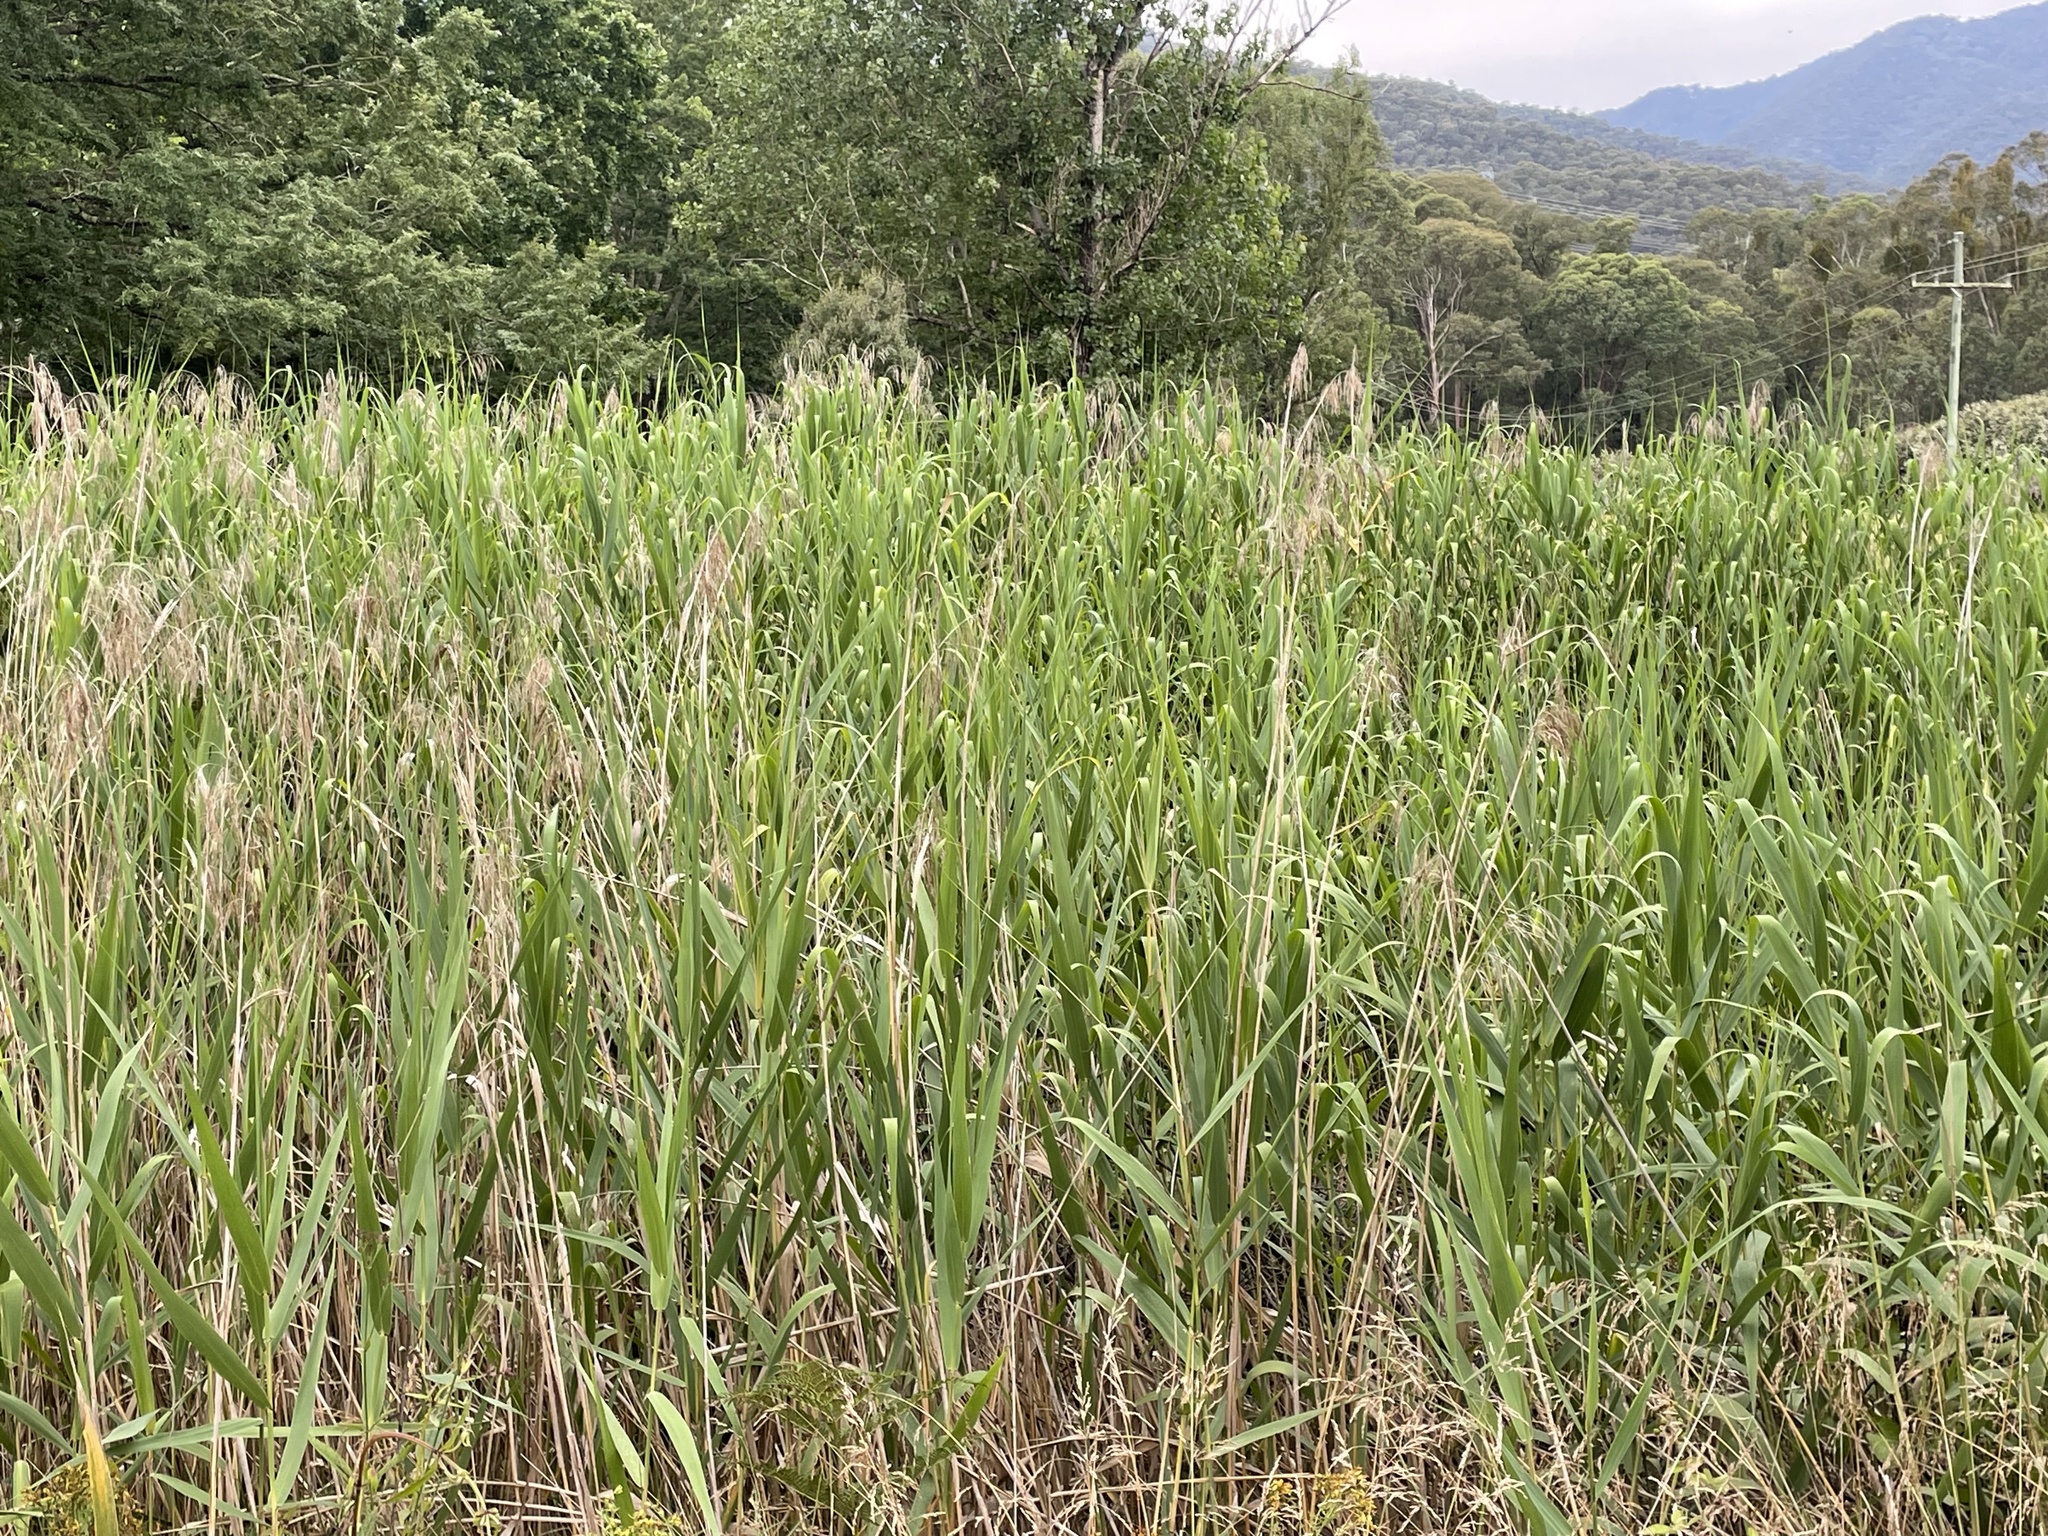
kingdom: Plantae
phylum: Tracheophyta
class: Liliopsida
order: Poales
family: Poaceae
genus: Phragmites
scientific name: Phragmites australis
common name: Common reed
